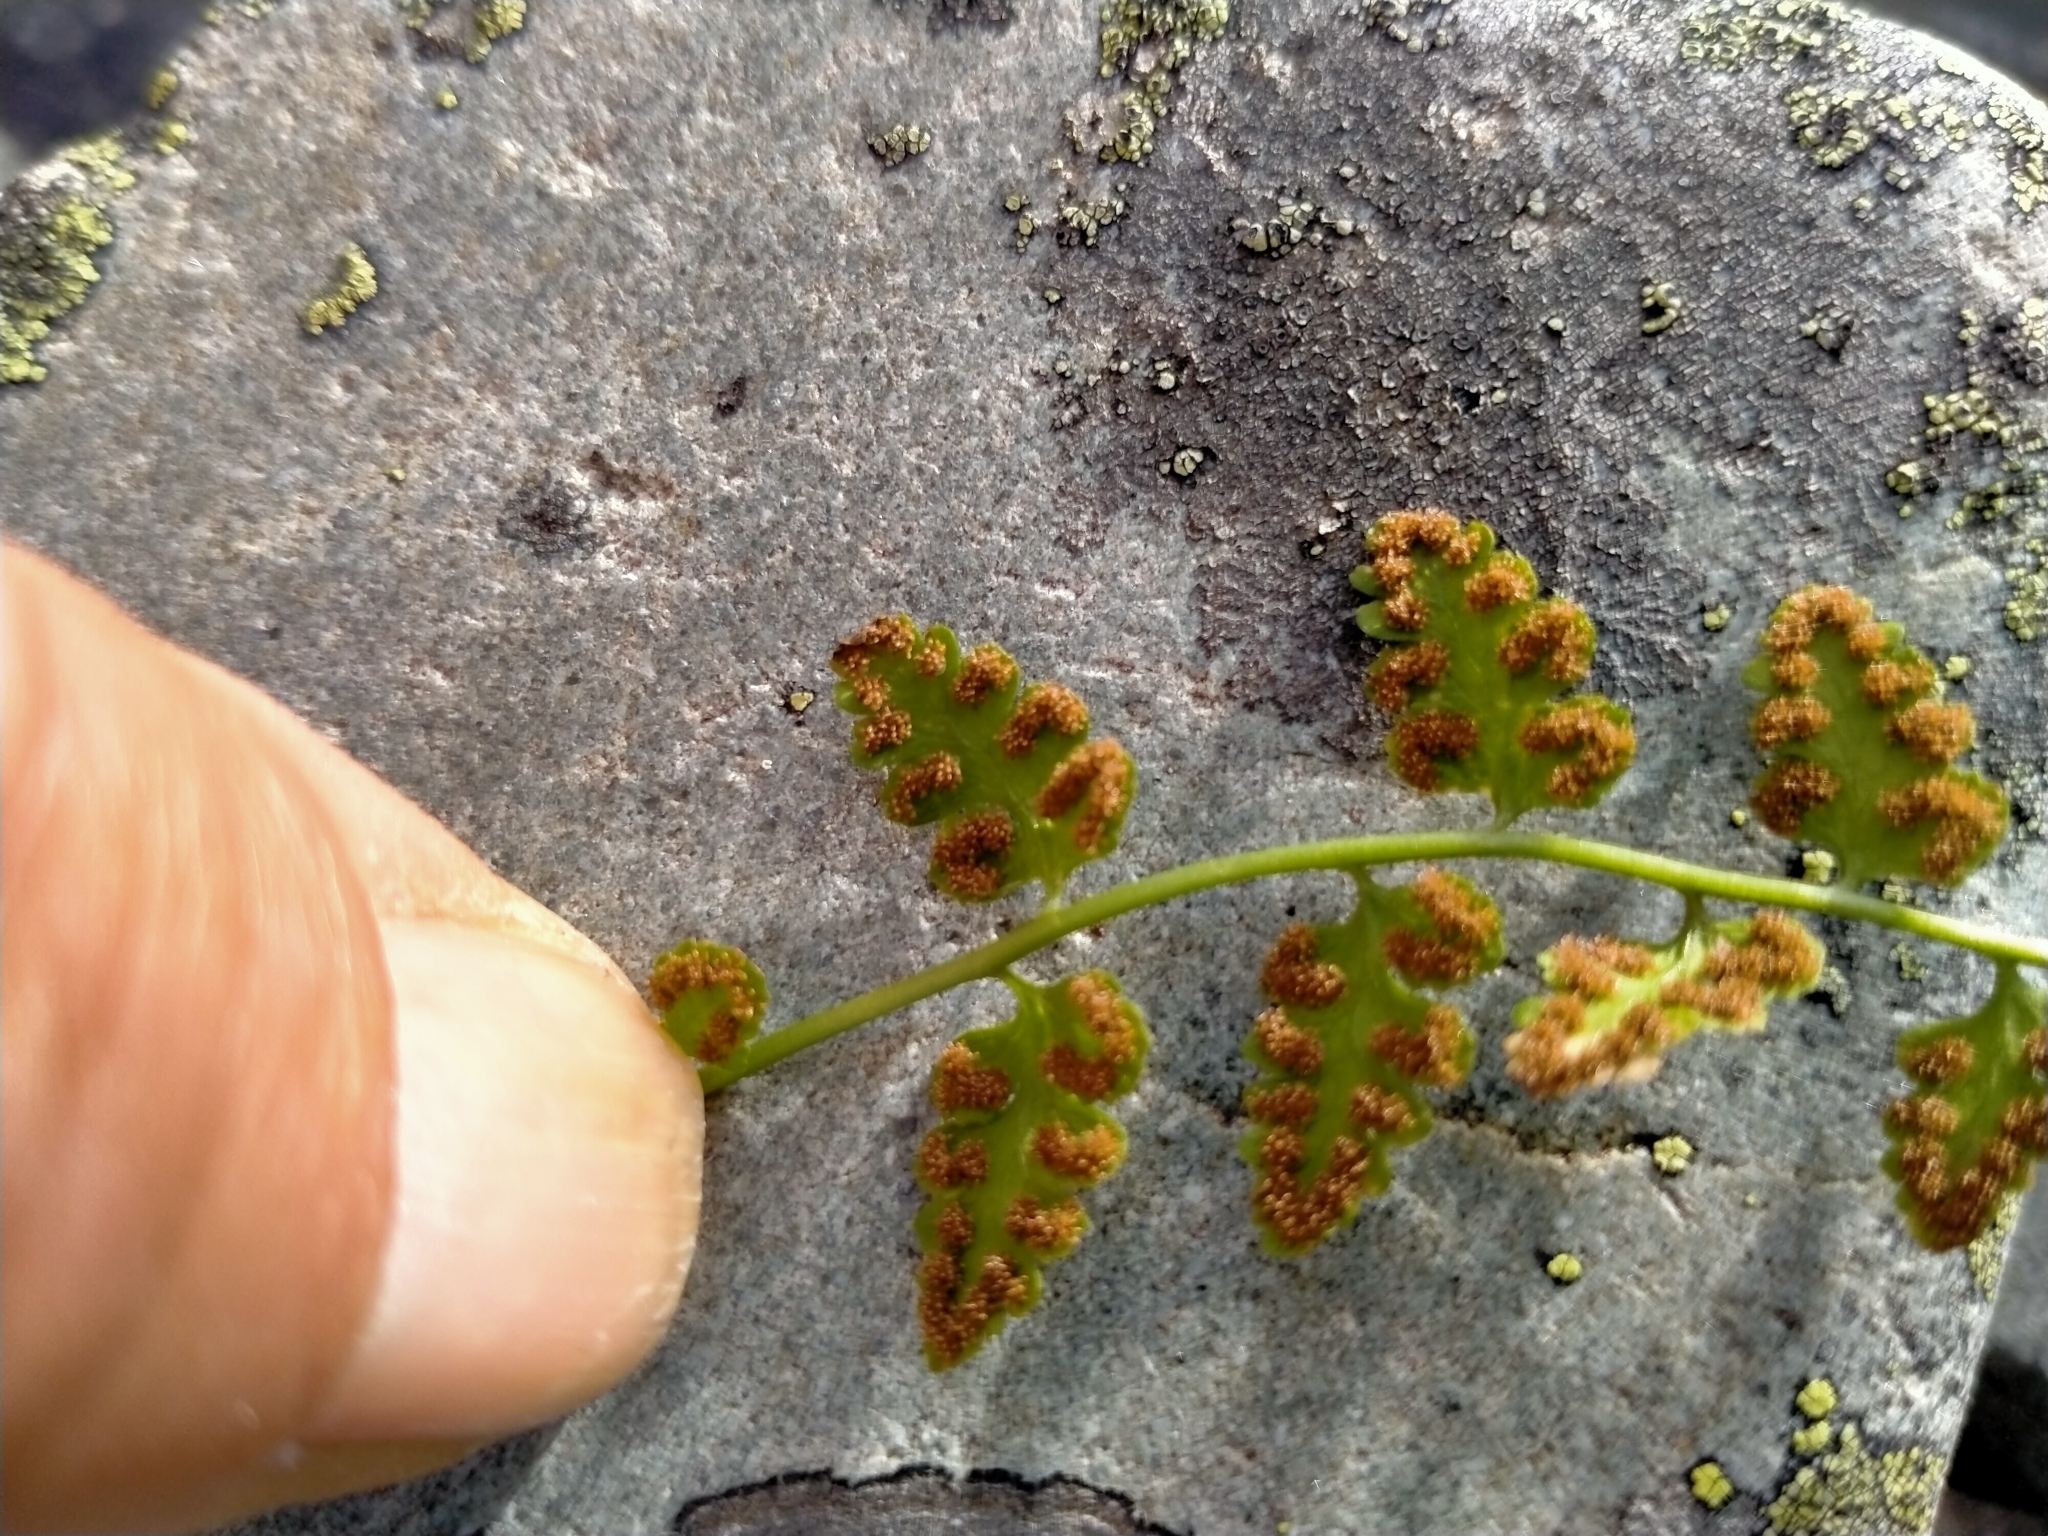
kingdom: Plantae
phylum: Tracheophyta
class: Polypodiopsida
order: Polypodiales
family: Cystopteridaceae
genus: Cystopteris
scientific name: Cystopteris tasmanica
